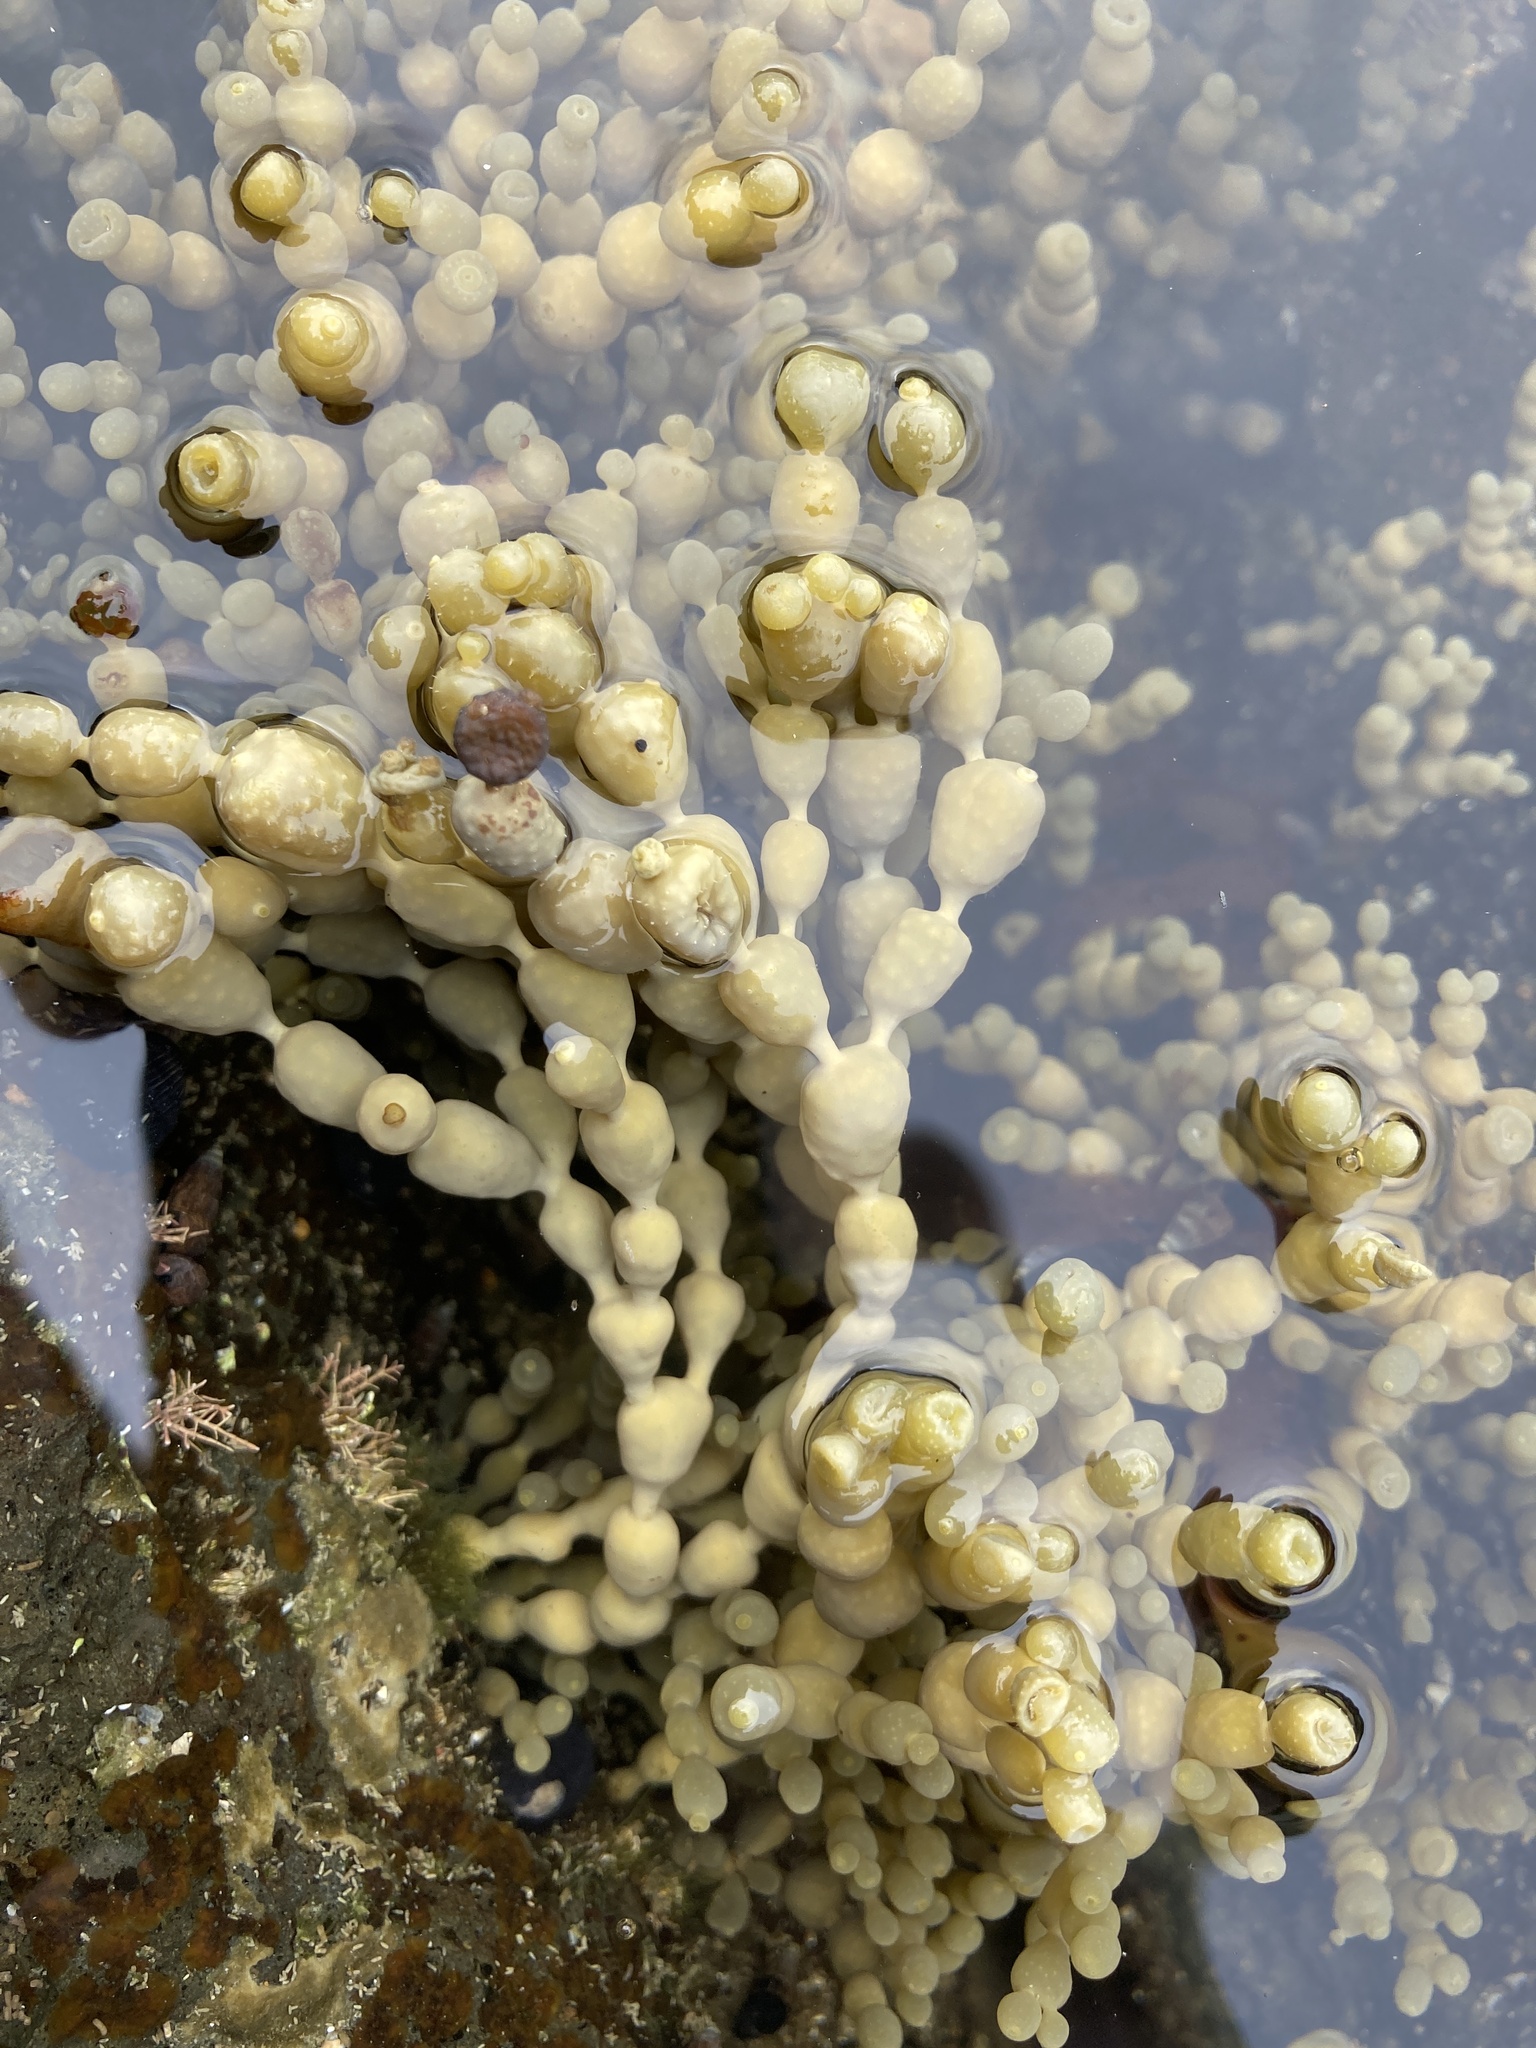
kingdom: Chromista
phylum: Ochrophyta
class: Phaeophyceae
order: Fucales
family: Hormosiraceae
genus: Hormosira
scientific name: Hormosira banksii
